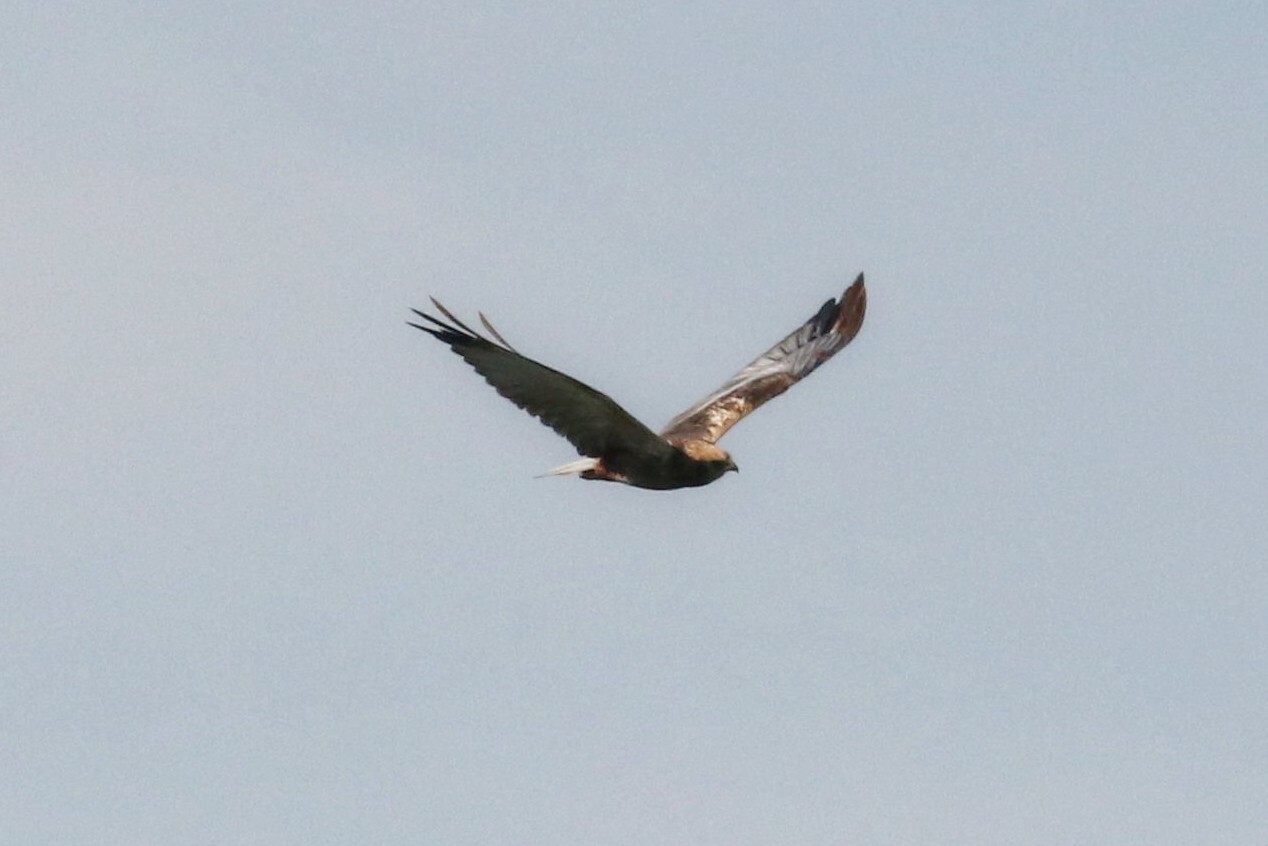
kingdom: Animalia
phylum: Chordata
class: Aves
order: Accipitriformes
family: Accipitridae
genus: Circus
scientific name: Circus aeruginosus
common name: Western marsh harrier
